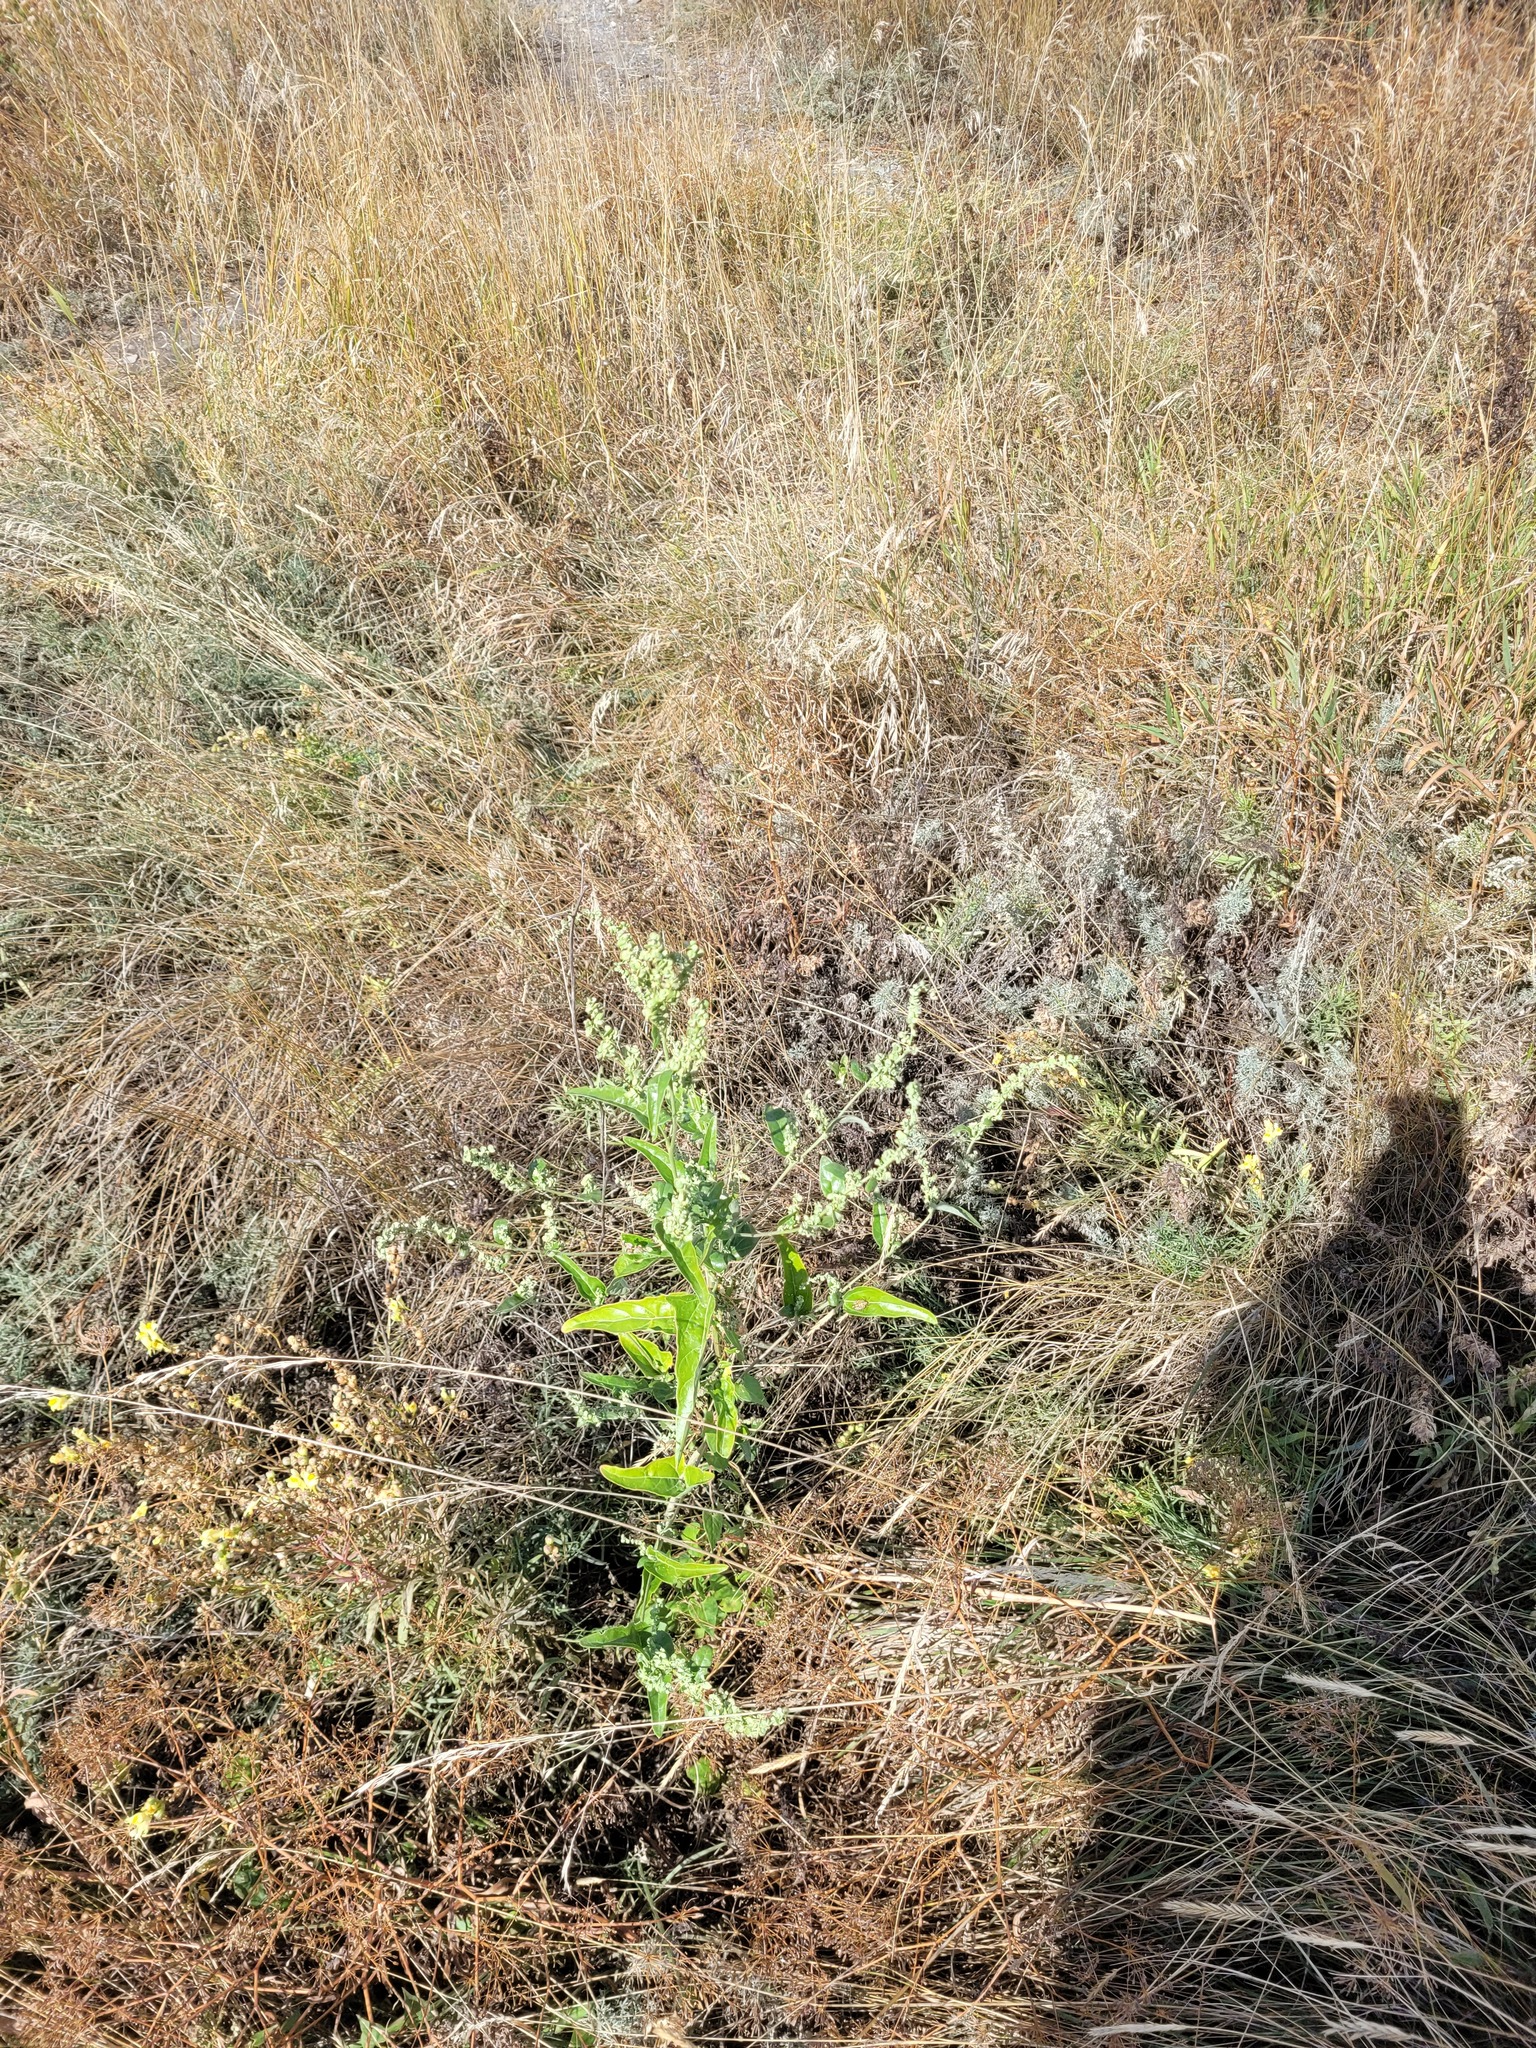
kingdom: Plantae
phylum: Tracheophyta
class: Magnoliopsida
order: Caryophyllales
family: Amaranthaceae
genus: Atriplex
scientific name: Atriplex sagittata
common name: Purple orache
